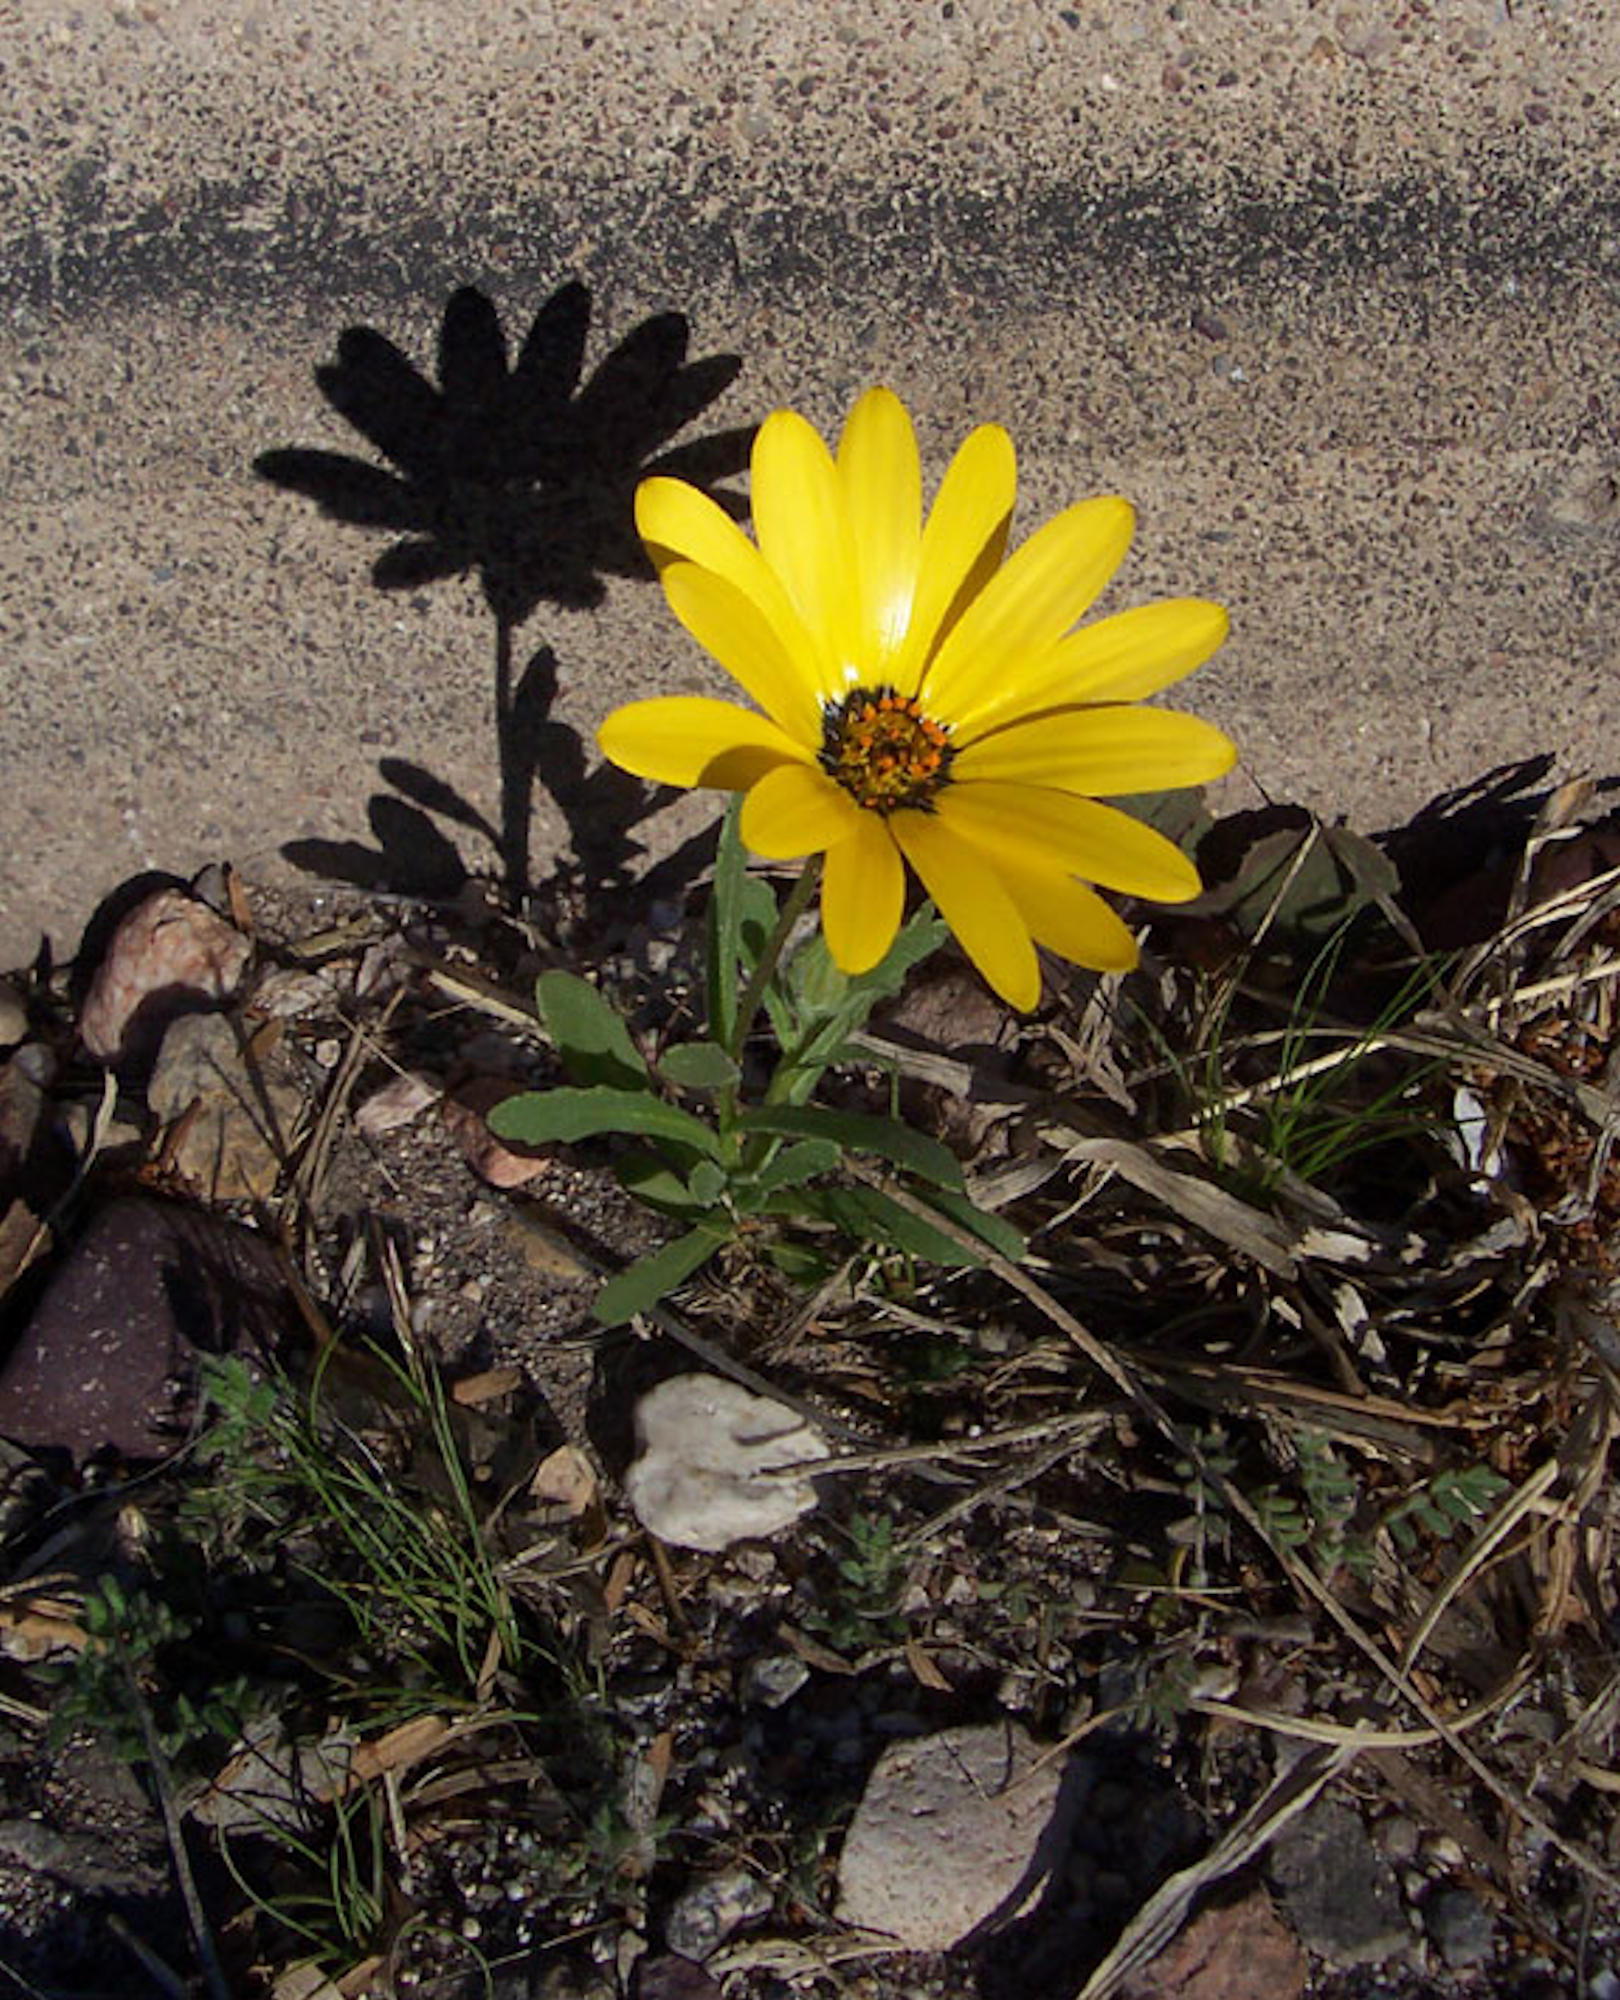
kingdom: Plantae
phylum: Tracheophyta
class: Magnoliopsida
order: Asterales
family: Asteraceae
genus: Dimorphotheca
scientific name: Dimorphotheca sinuata
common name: Glandular cape marigold
